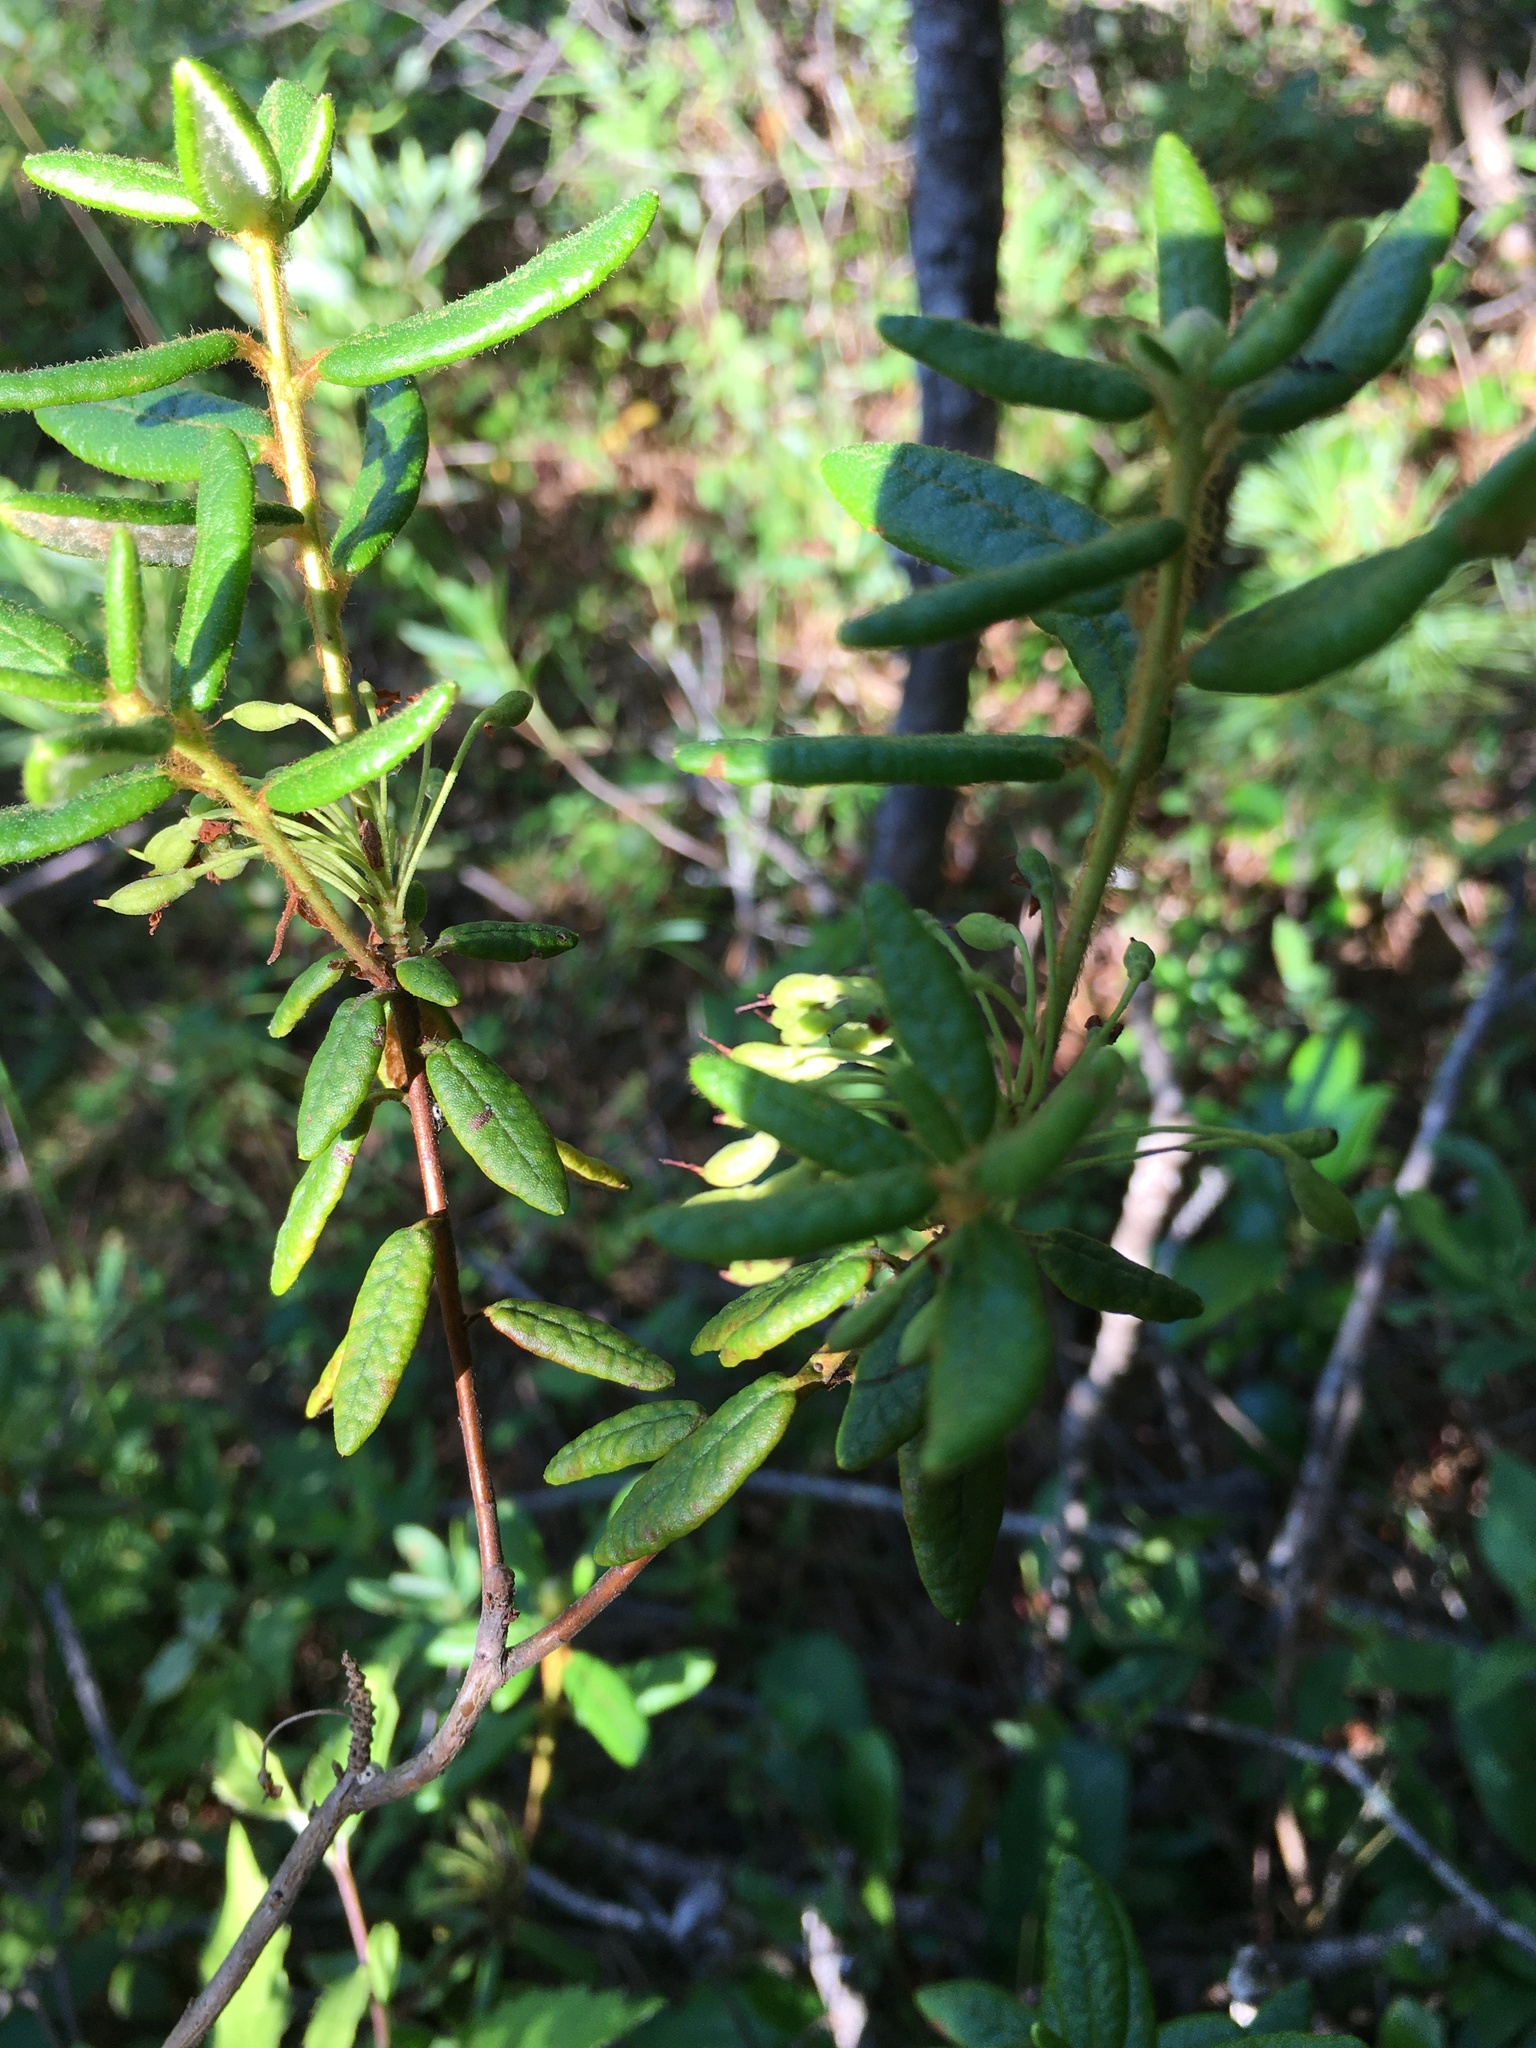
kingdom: Plantae
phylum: Tracheophyta
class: Magnoliopsida
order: Ericales
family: Ericaceae
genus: Rhododendron
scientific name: Rhododendron groenlandicum
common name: Bog labrador tea
